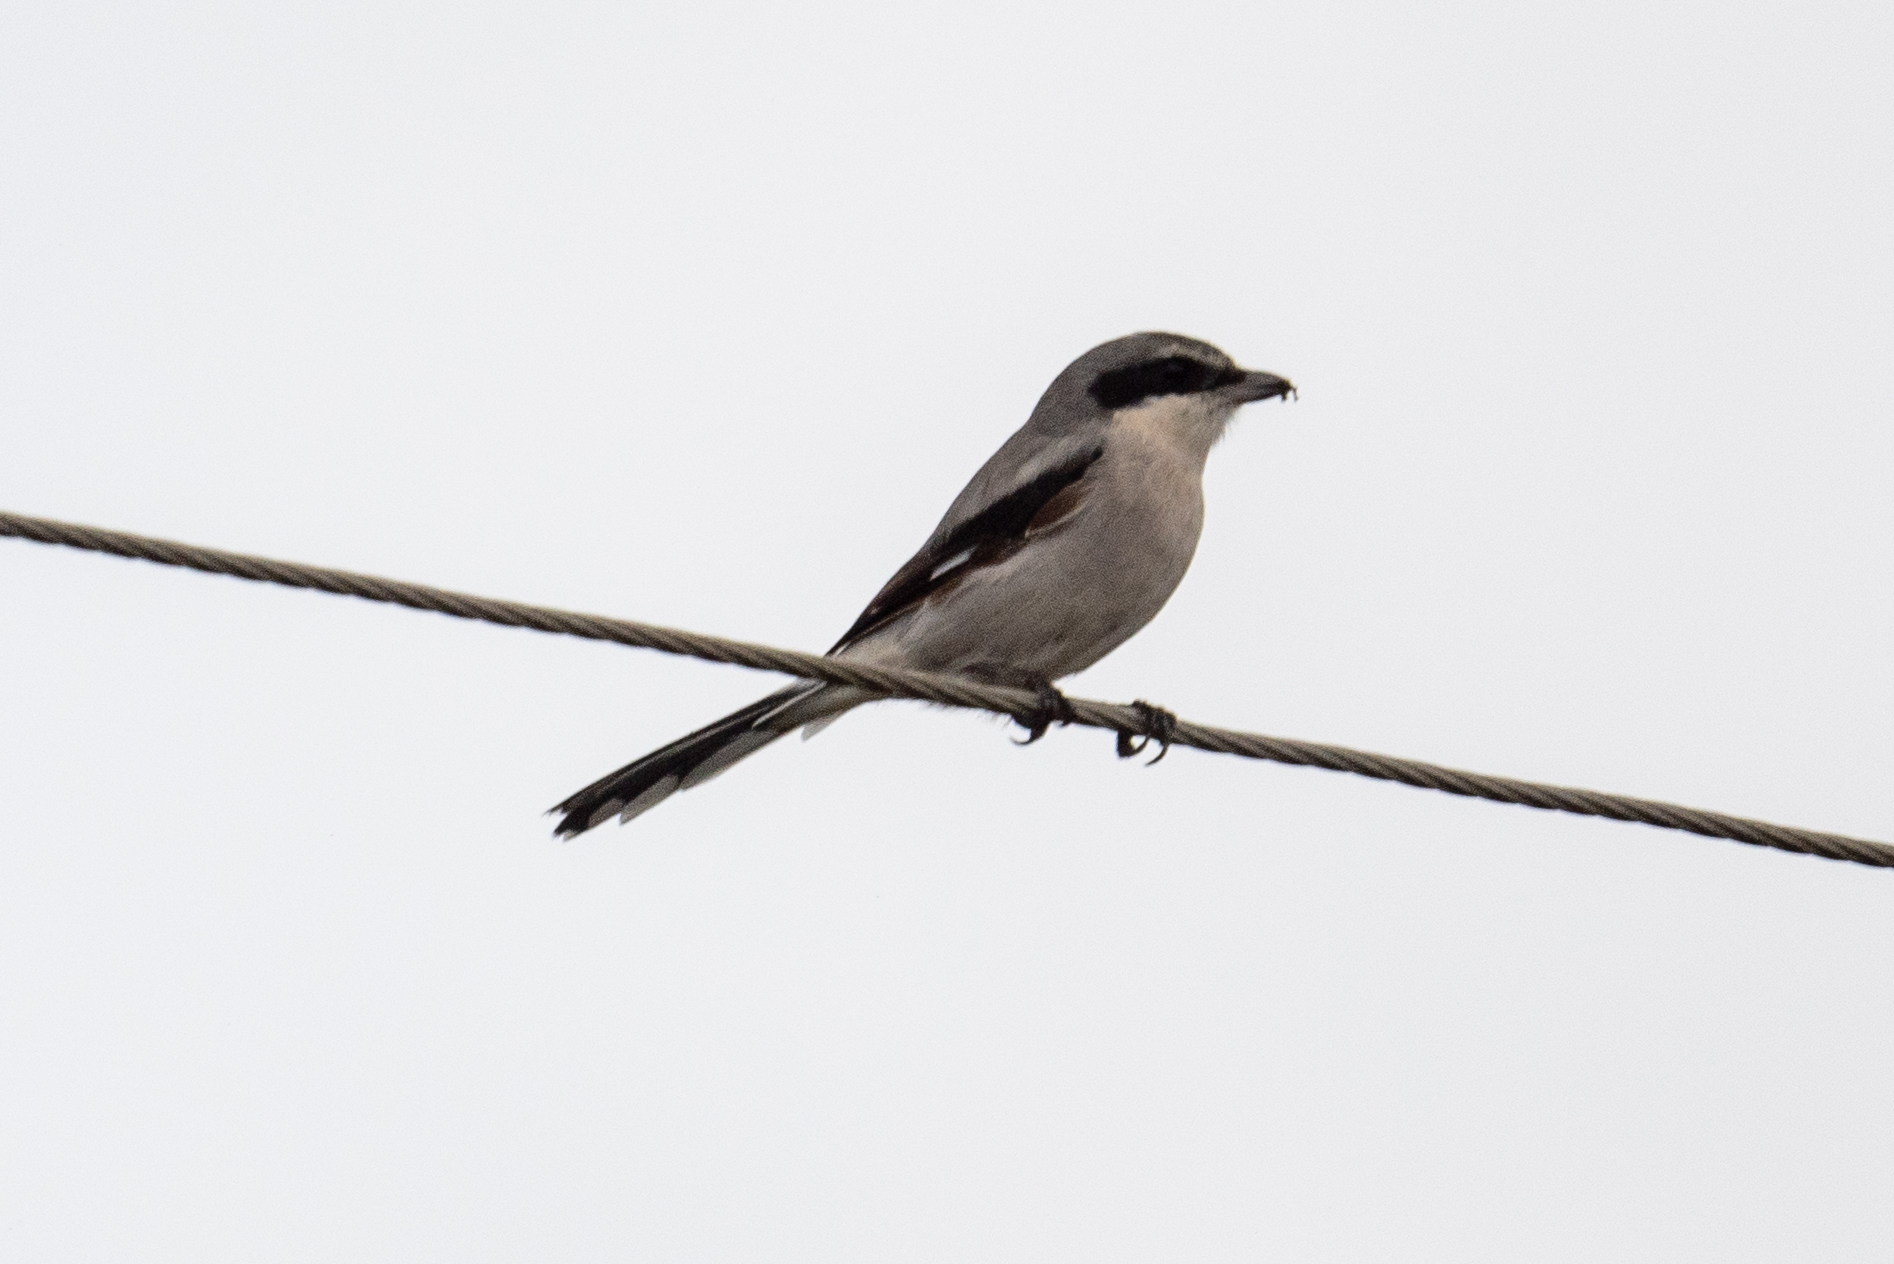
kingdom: Animalia
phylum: Chordata
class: Aves
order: Passeriformes
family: Laniidae
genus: Lanius
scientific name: Lanius ludovicianus
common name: Loggerhead shrike
